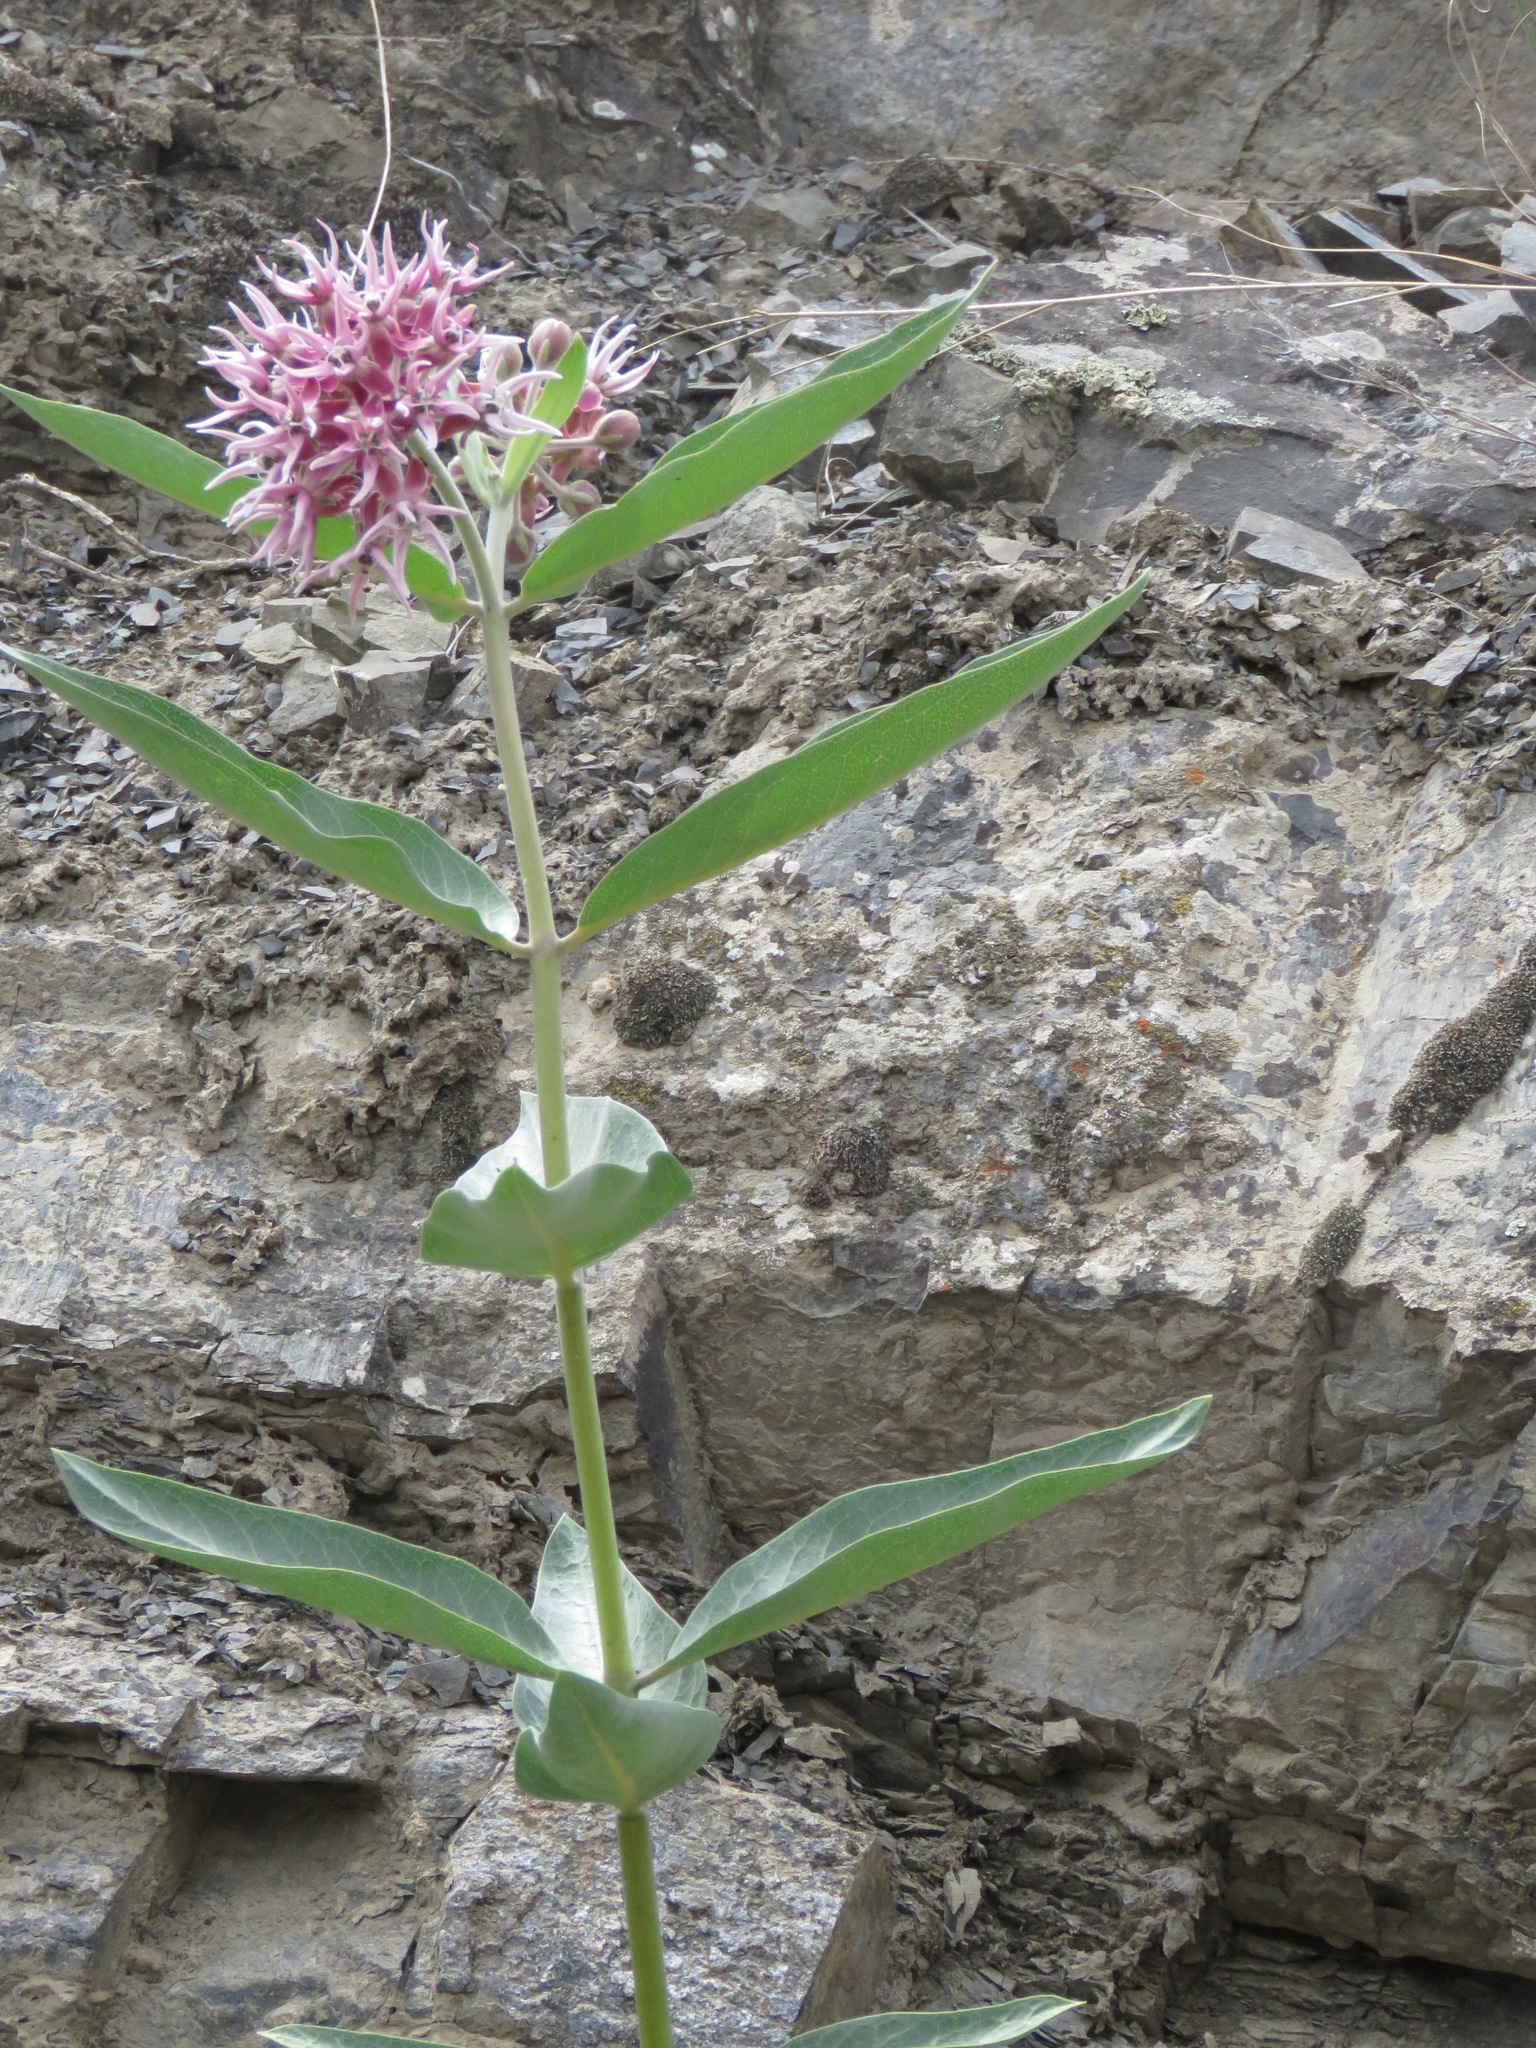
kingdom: Plantae
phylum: Tracheophyta
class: Magnoliopsida
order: Gentianales
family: Apocynaceae
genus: Asclepias
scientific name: Asclepias speciosa
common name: Showy milkweed
